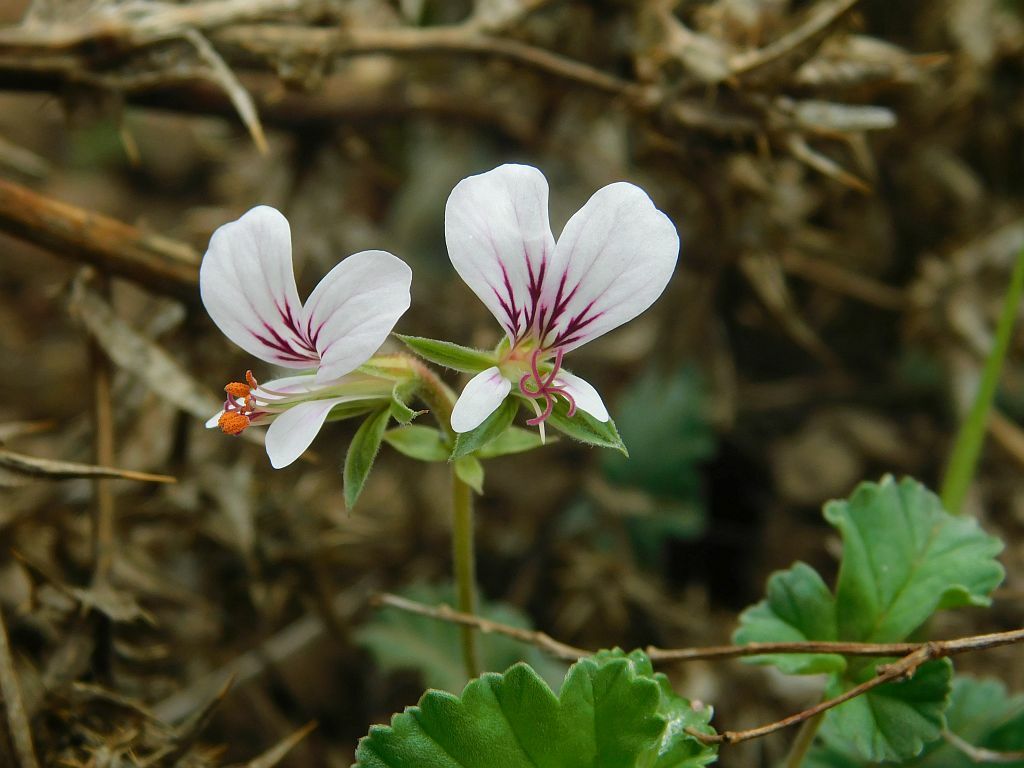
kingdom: Plantae
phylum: Tracheophyta
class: Magnoliopsida
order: Geraniales
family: Geraniaceae
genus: Pelargonium
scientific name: Pelargonium candicans
